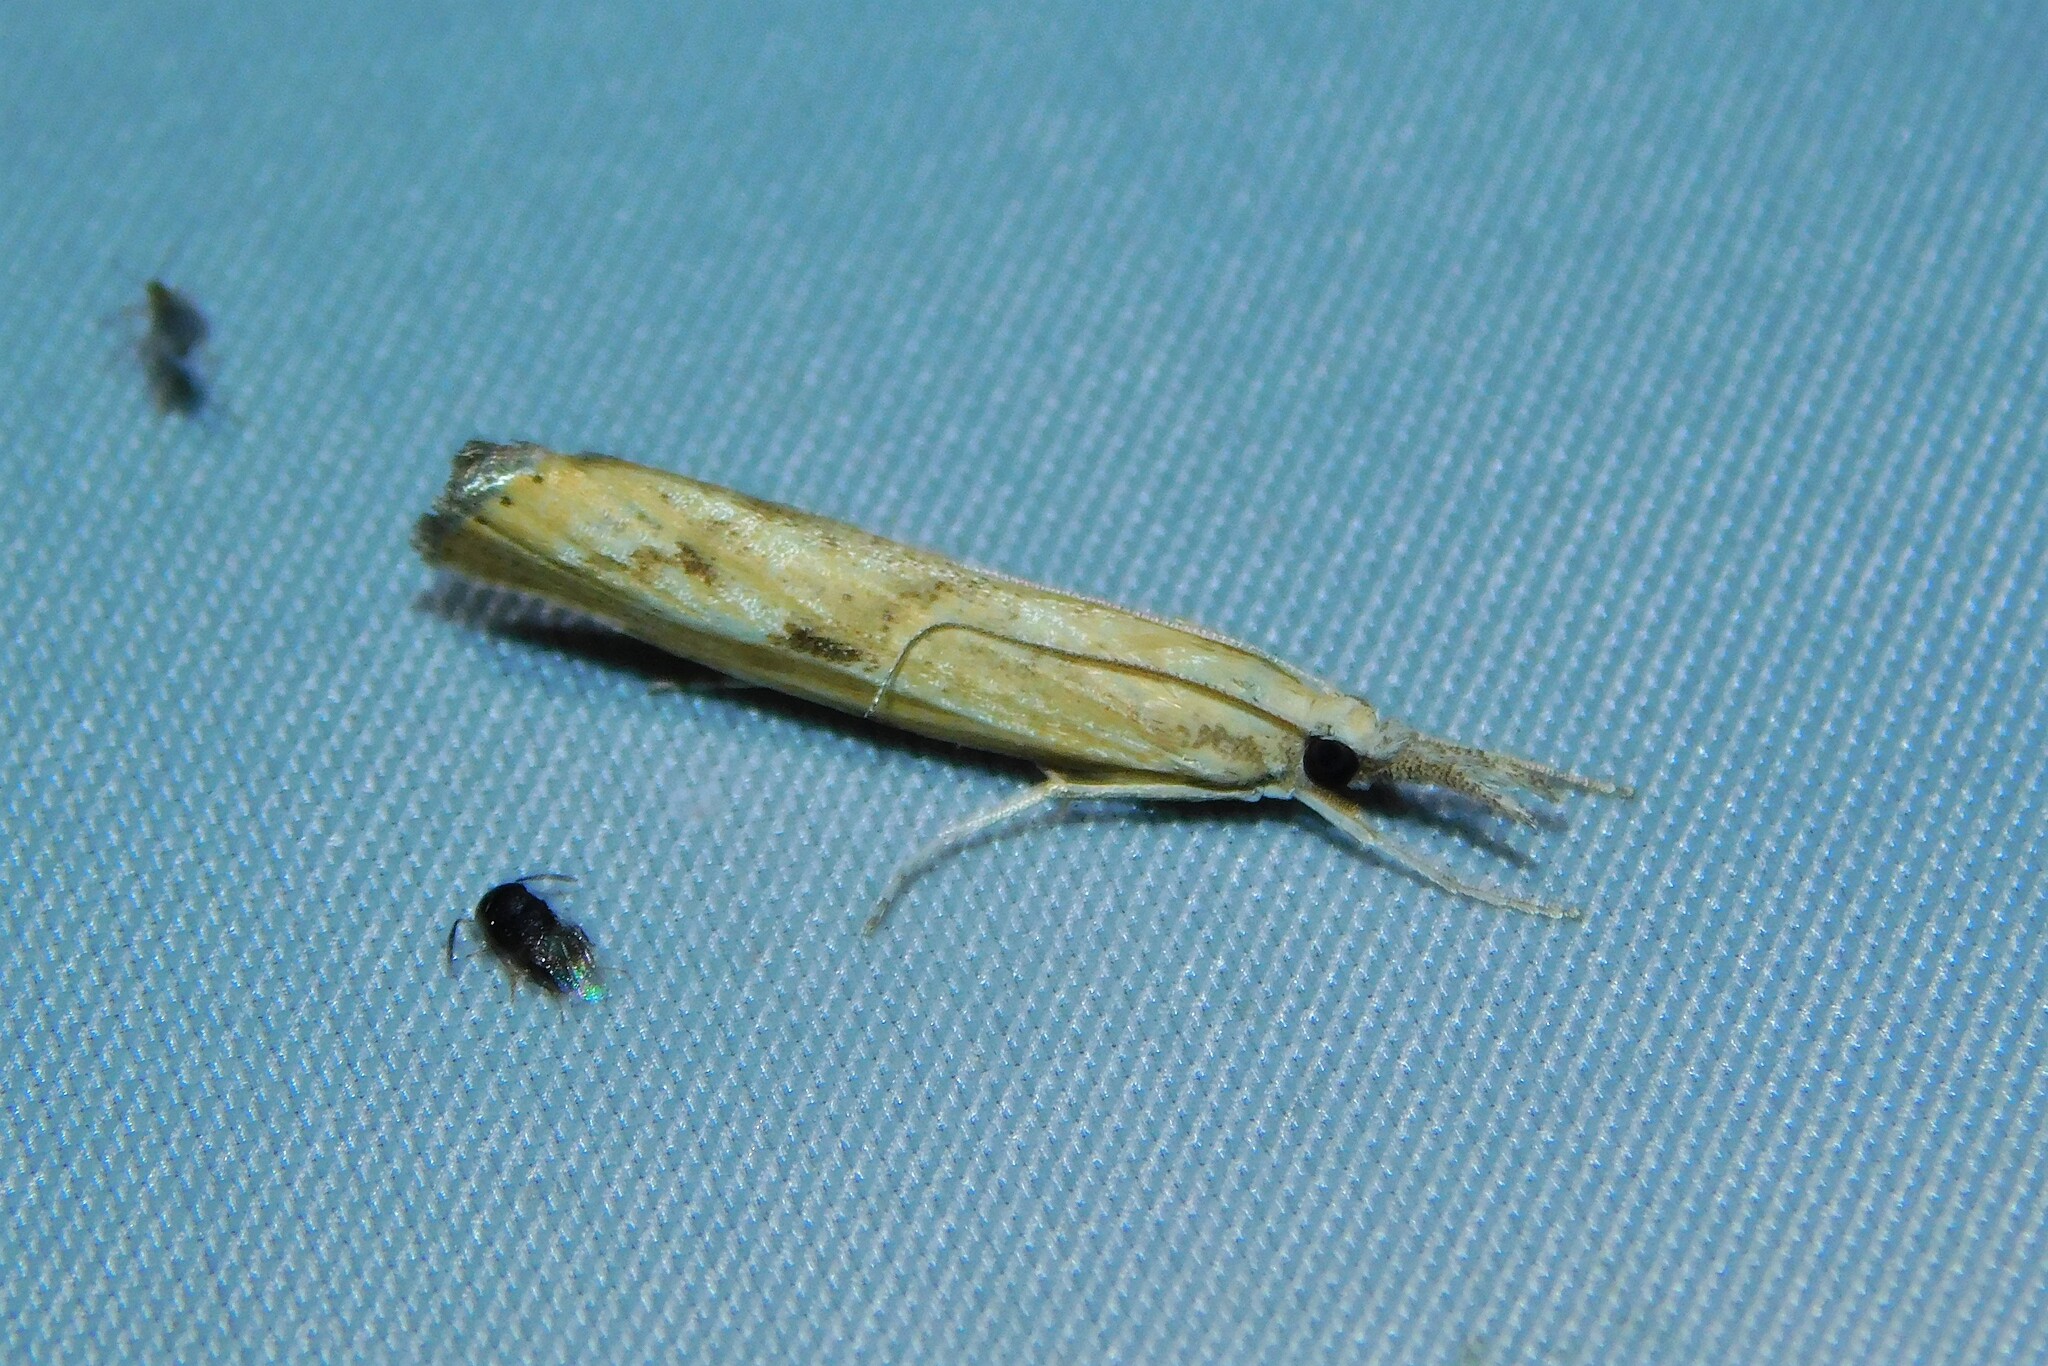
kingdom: Animalia
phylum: Arthropoda
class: Insecta
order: Lepidoptera
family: Crambidae
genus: Agriphila
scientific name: Agriphila inquinatella
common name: Barred grass-veneer
